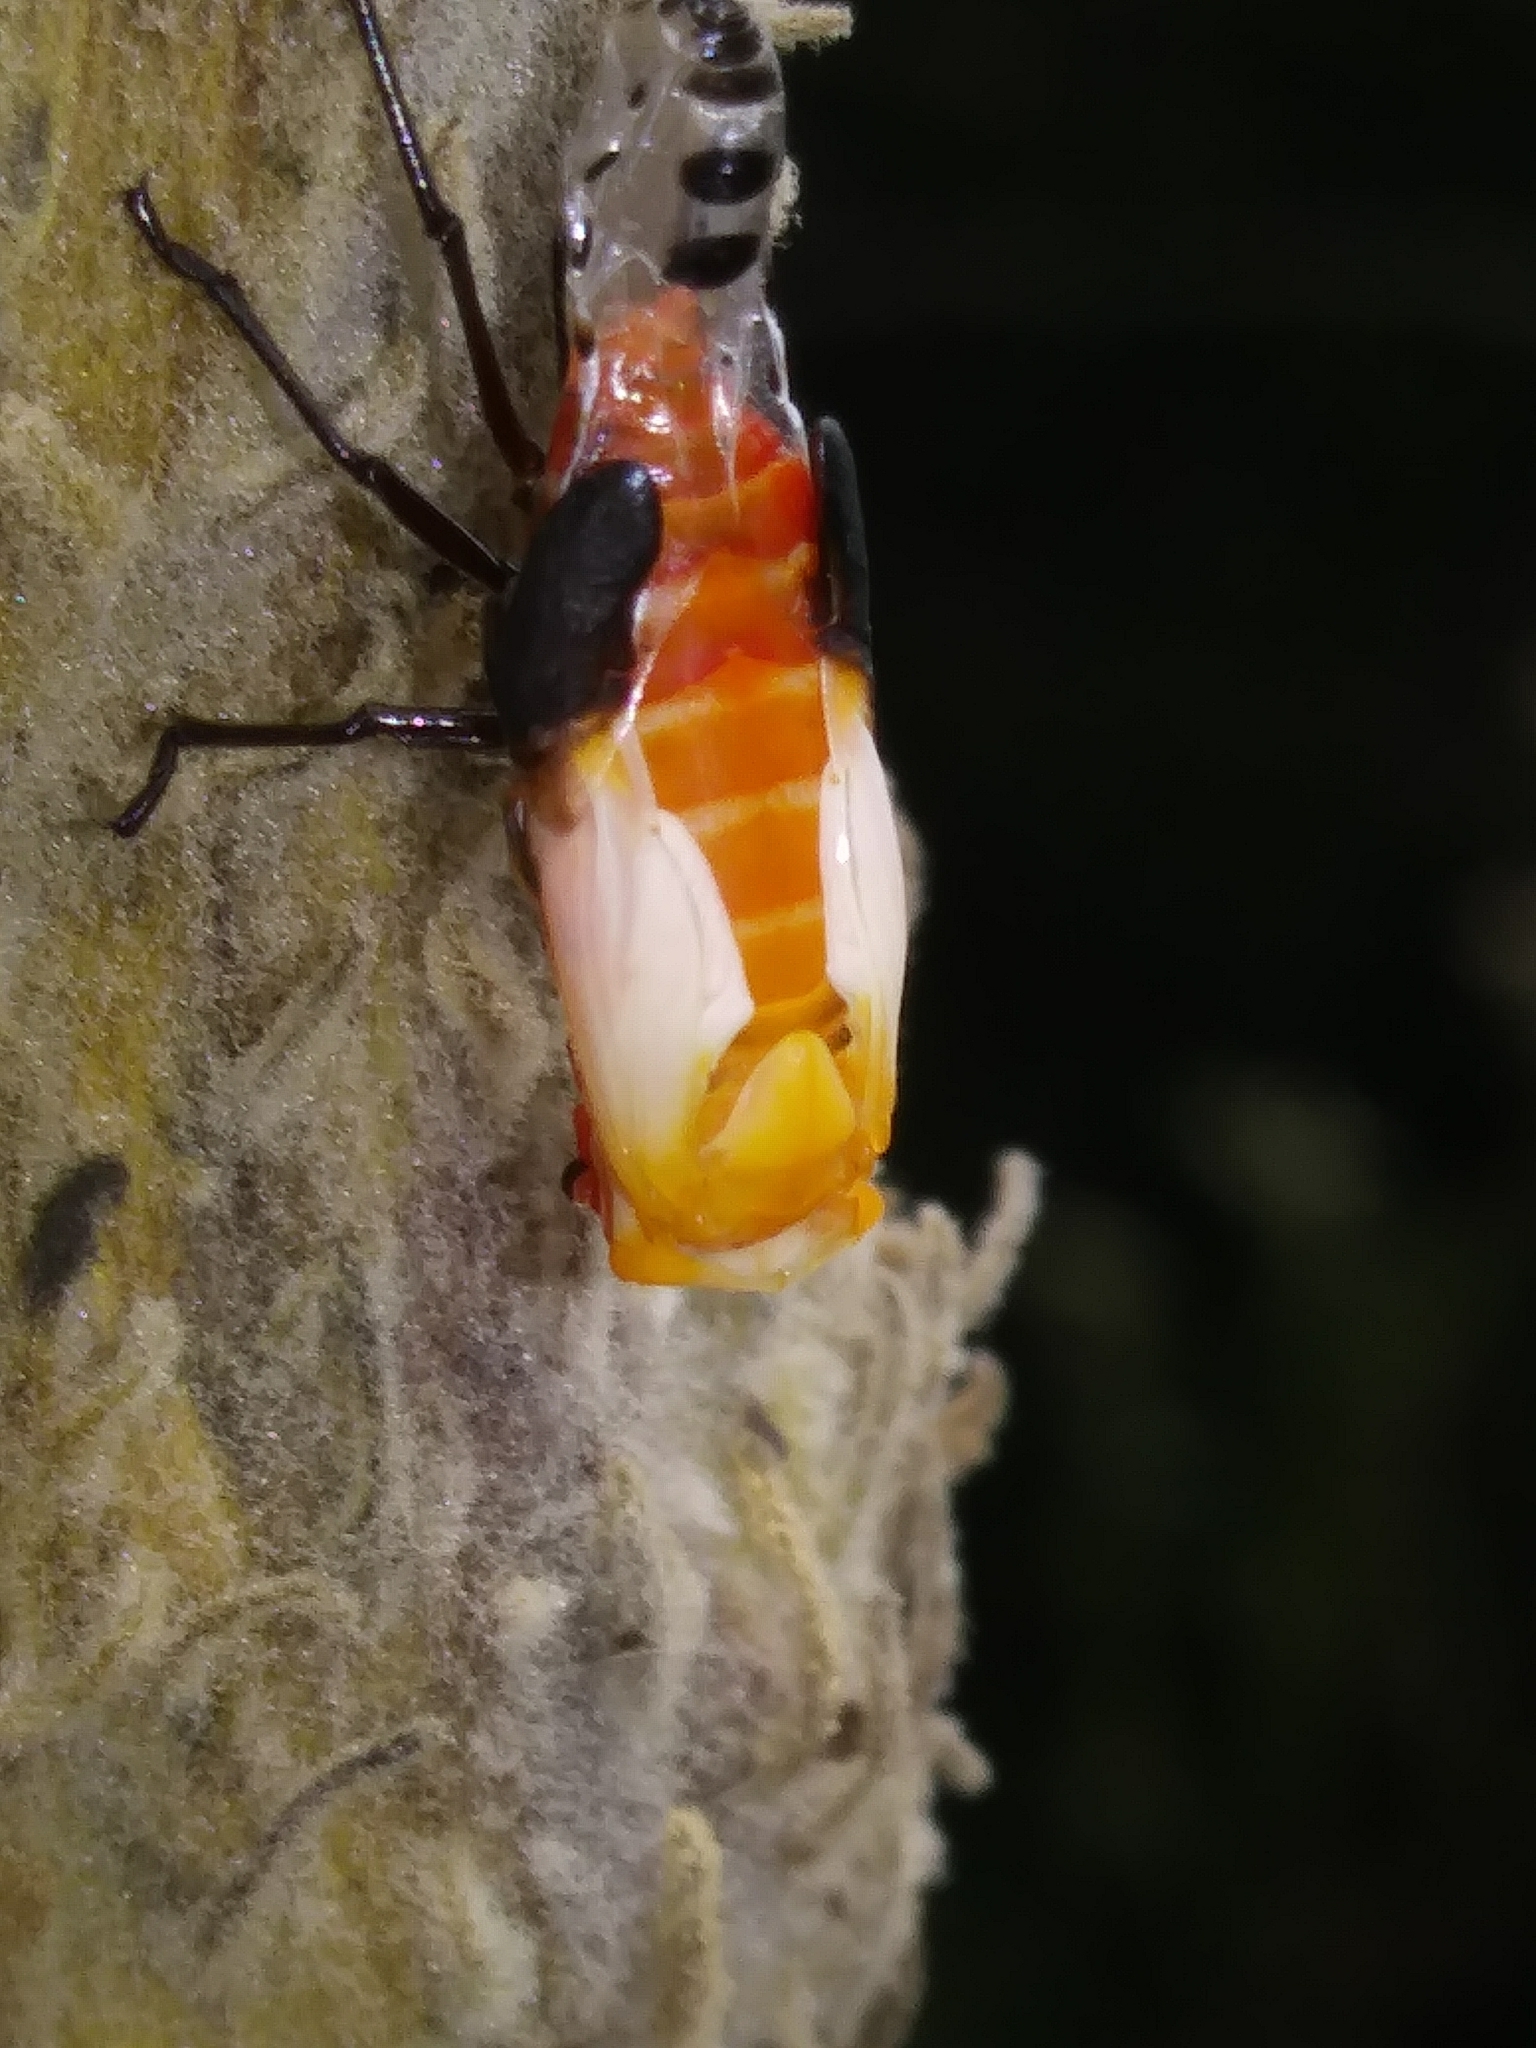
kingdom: Animalia
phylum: Arthropoda
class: Insecta
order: Hemiptera
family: Lygaeidae
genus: Oncopeltus
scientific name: Oncopeltus fasciatus
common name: Large milkweed bug
